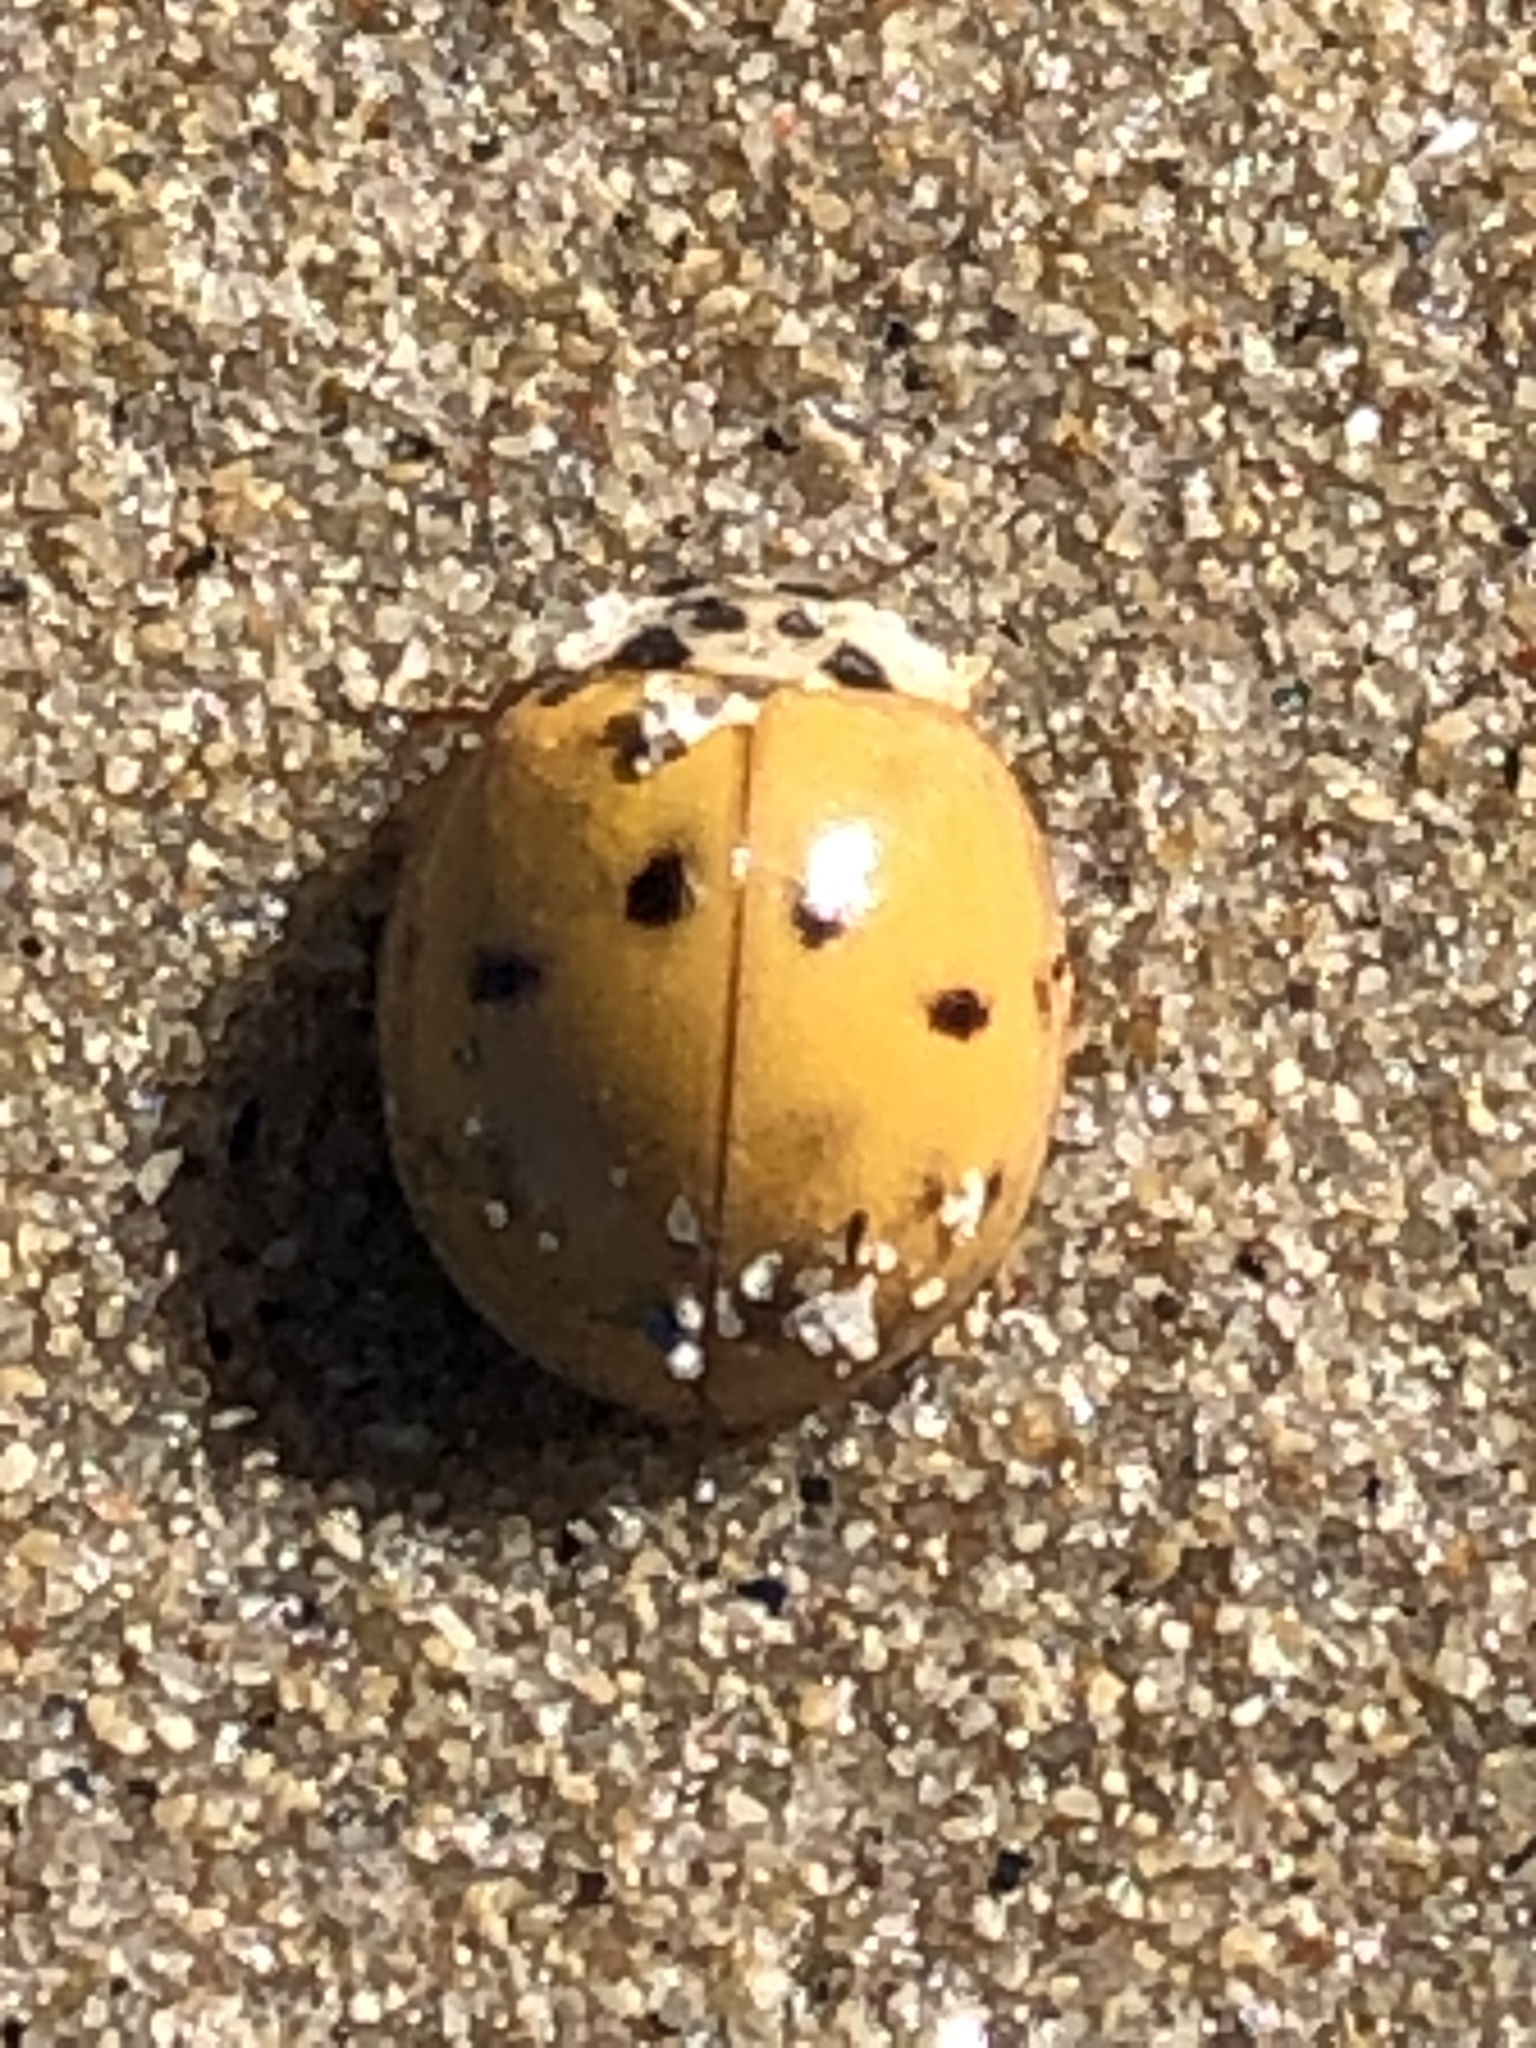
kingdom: Animalia
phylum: Arthropoda
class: Insecta
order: Coleoptera
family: Coccinellidae
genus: Harmonia
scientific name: Harmonia axyridis
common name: Harlequin ladybird
